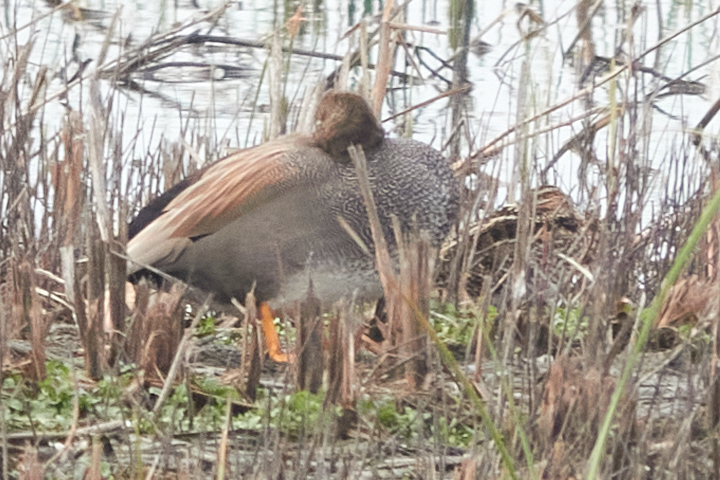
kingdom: Animalia
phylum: Chordata
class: Aves
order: Anseriformes
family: Anatidae
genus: Mareca
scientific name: Mareca strepera
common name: Gadwall
